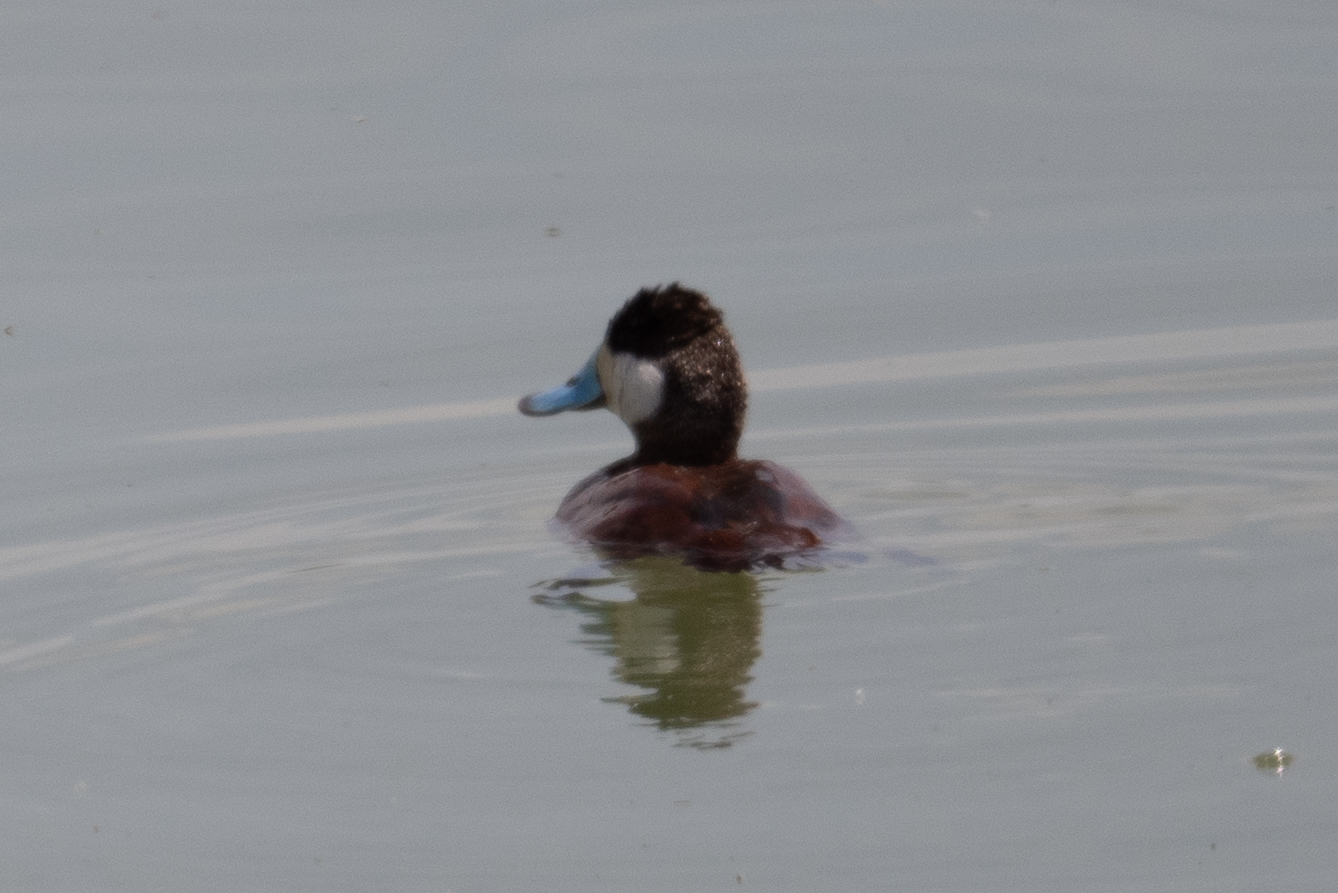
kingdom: Animalia
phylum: Chordata
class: Aves
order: Anseriformes
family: Anatidae
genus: Oxyura
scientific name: Oxyura jamaicensis
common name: Ruddy duck
